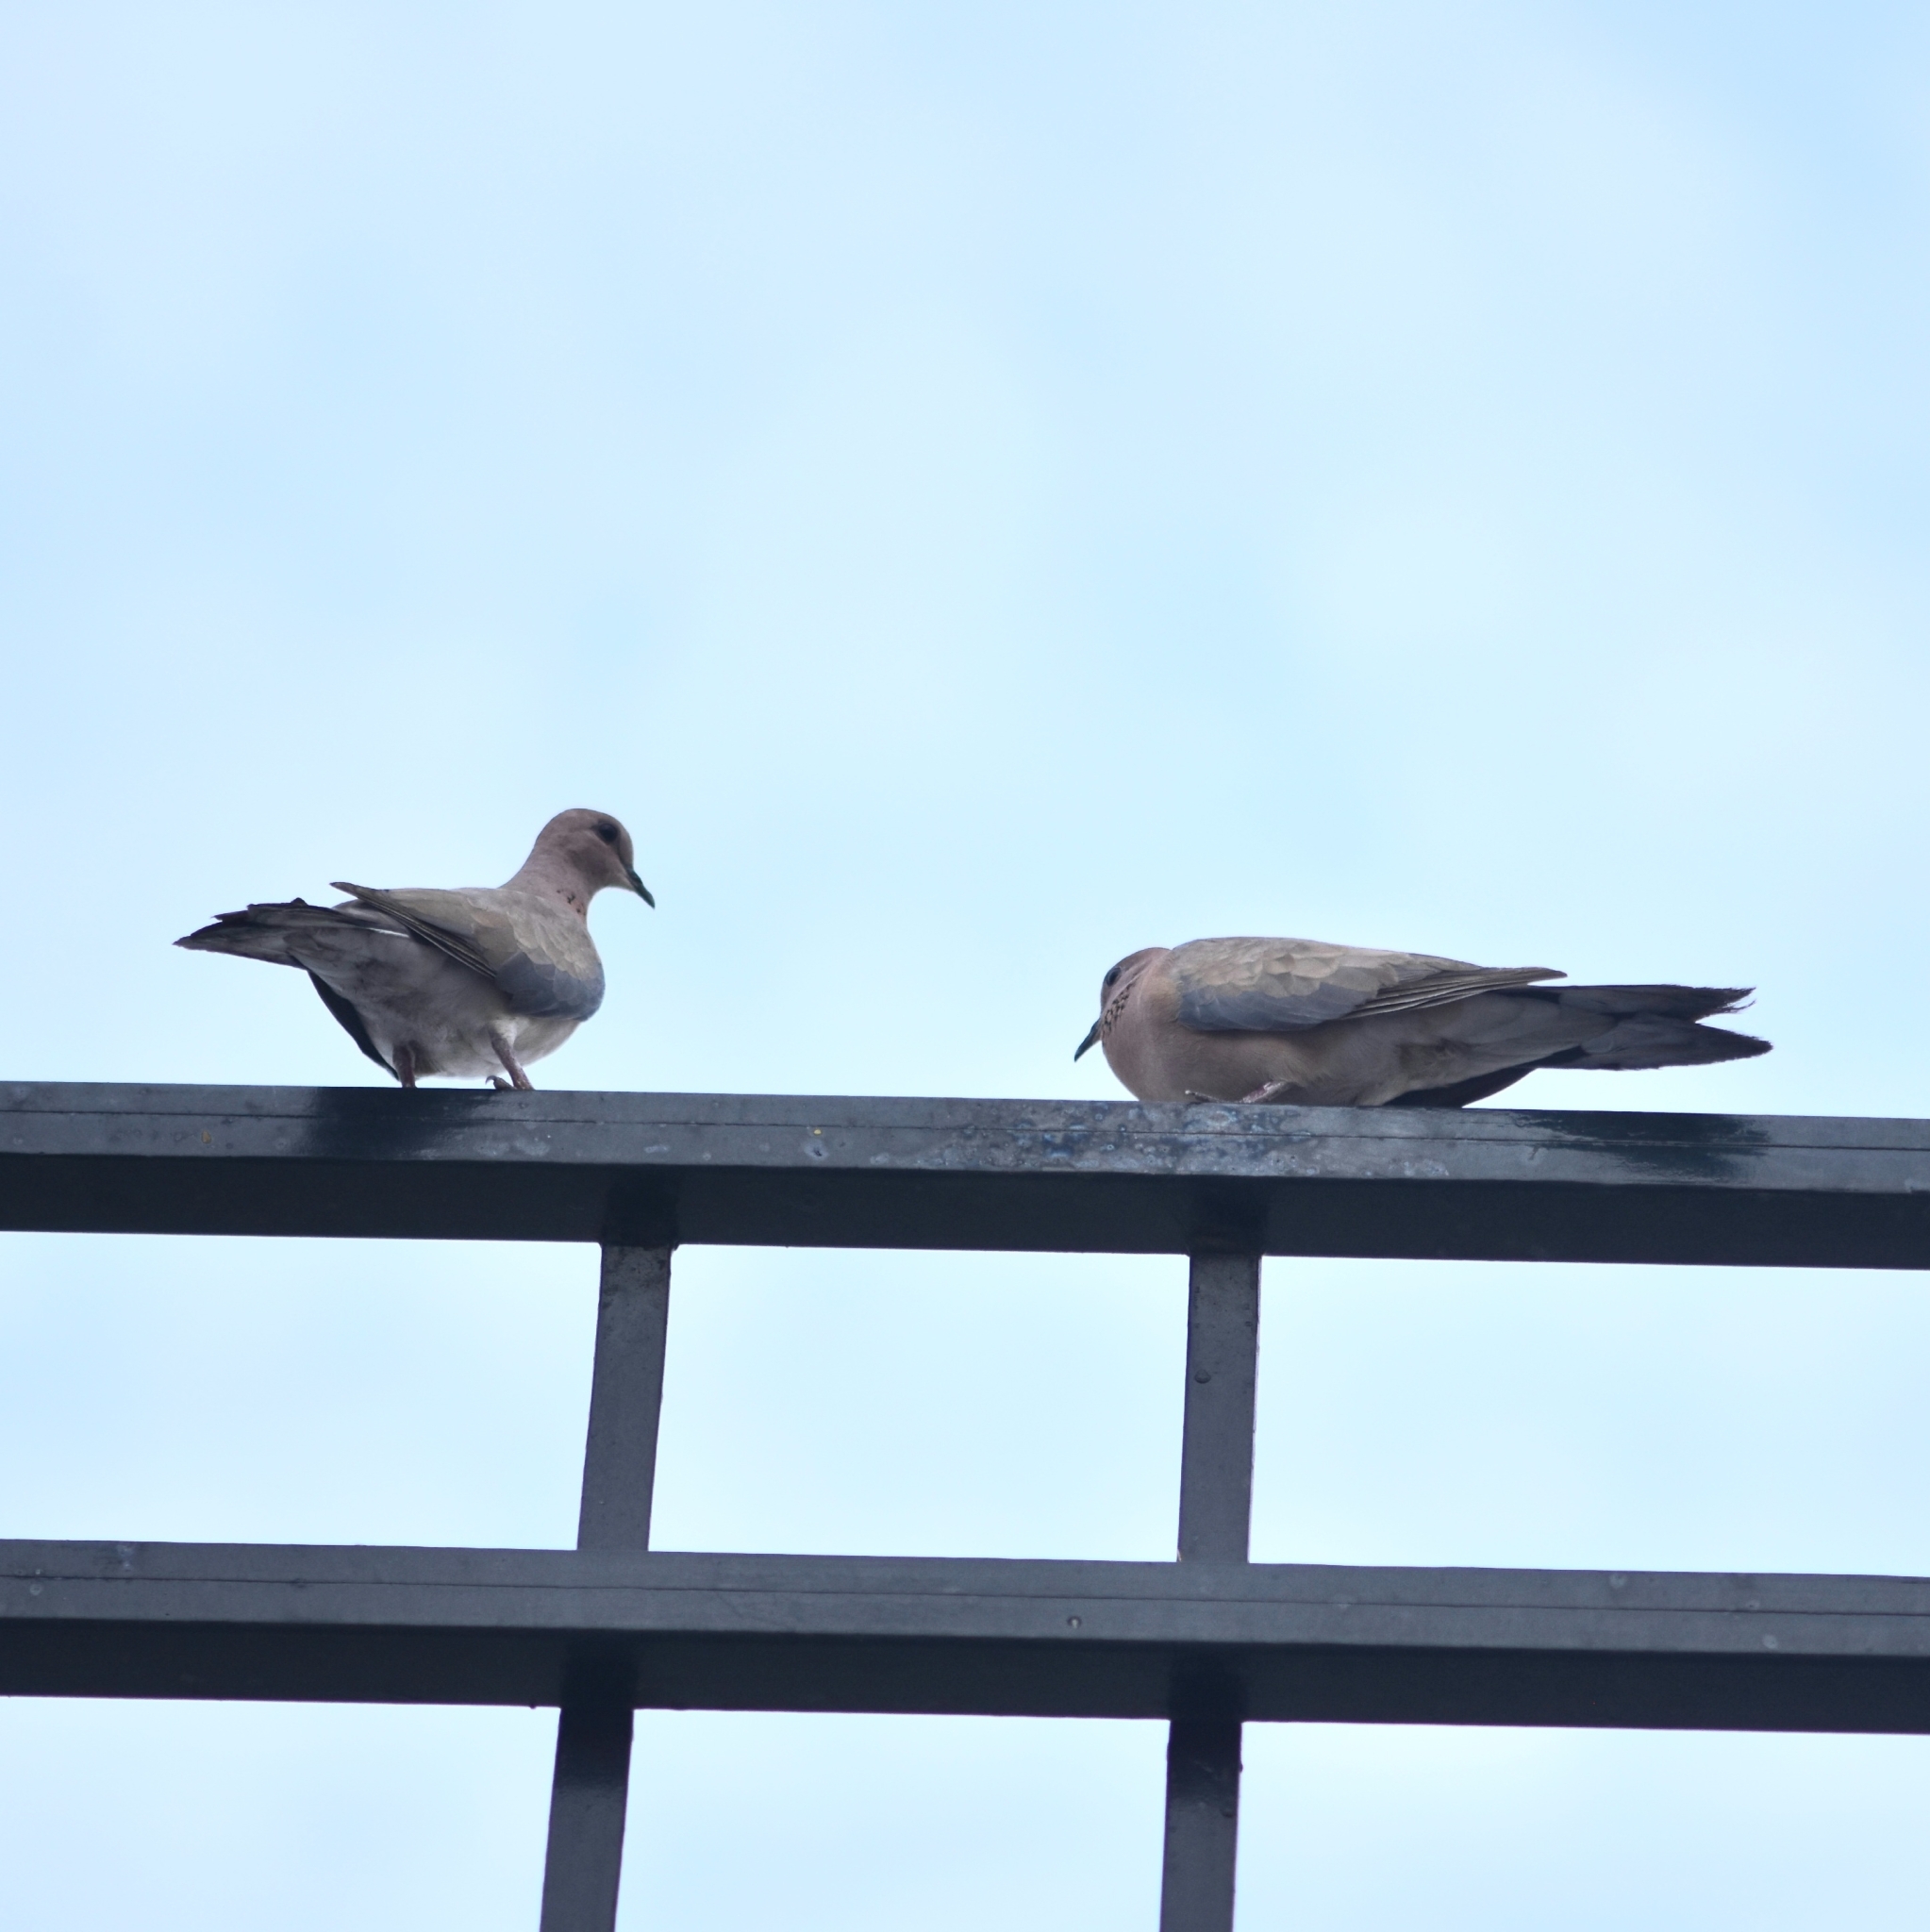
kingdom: Animalia
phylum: Chordata
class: Aves
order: Columbiformes
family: Columbidae
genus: Spilopelia
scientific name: Spilopelia senegalensis
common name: Laughing dove
